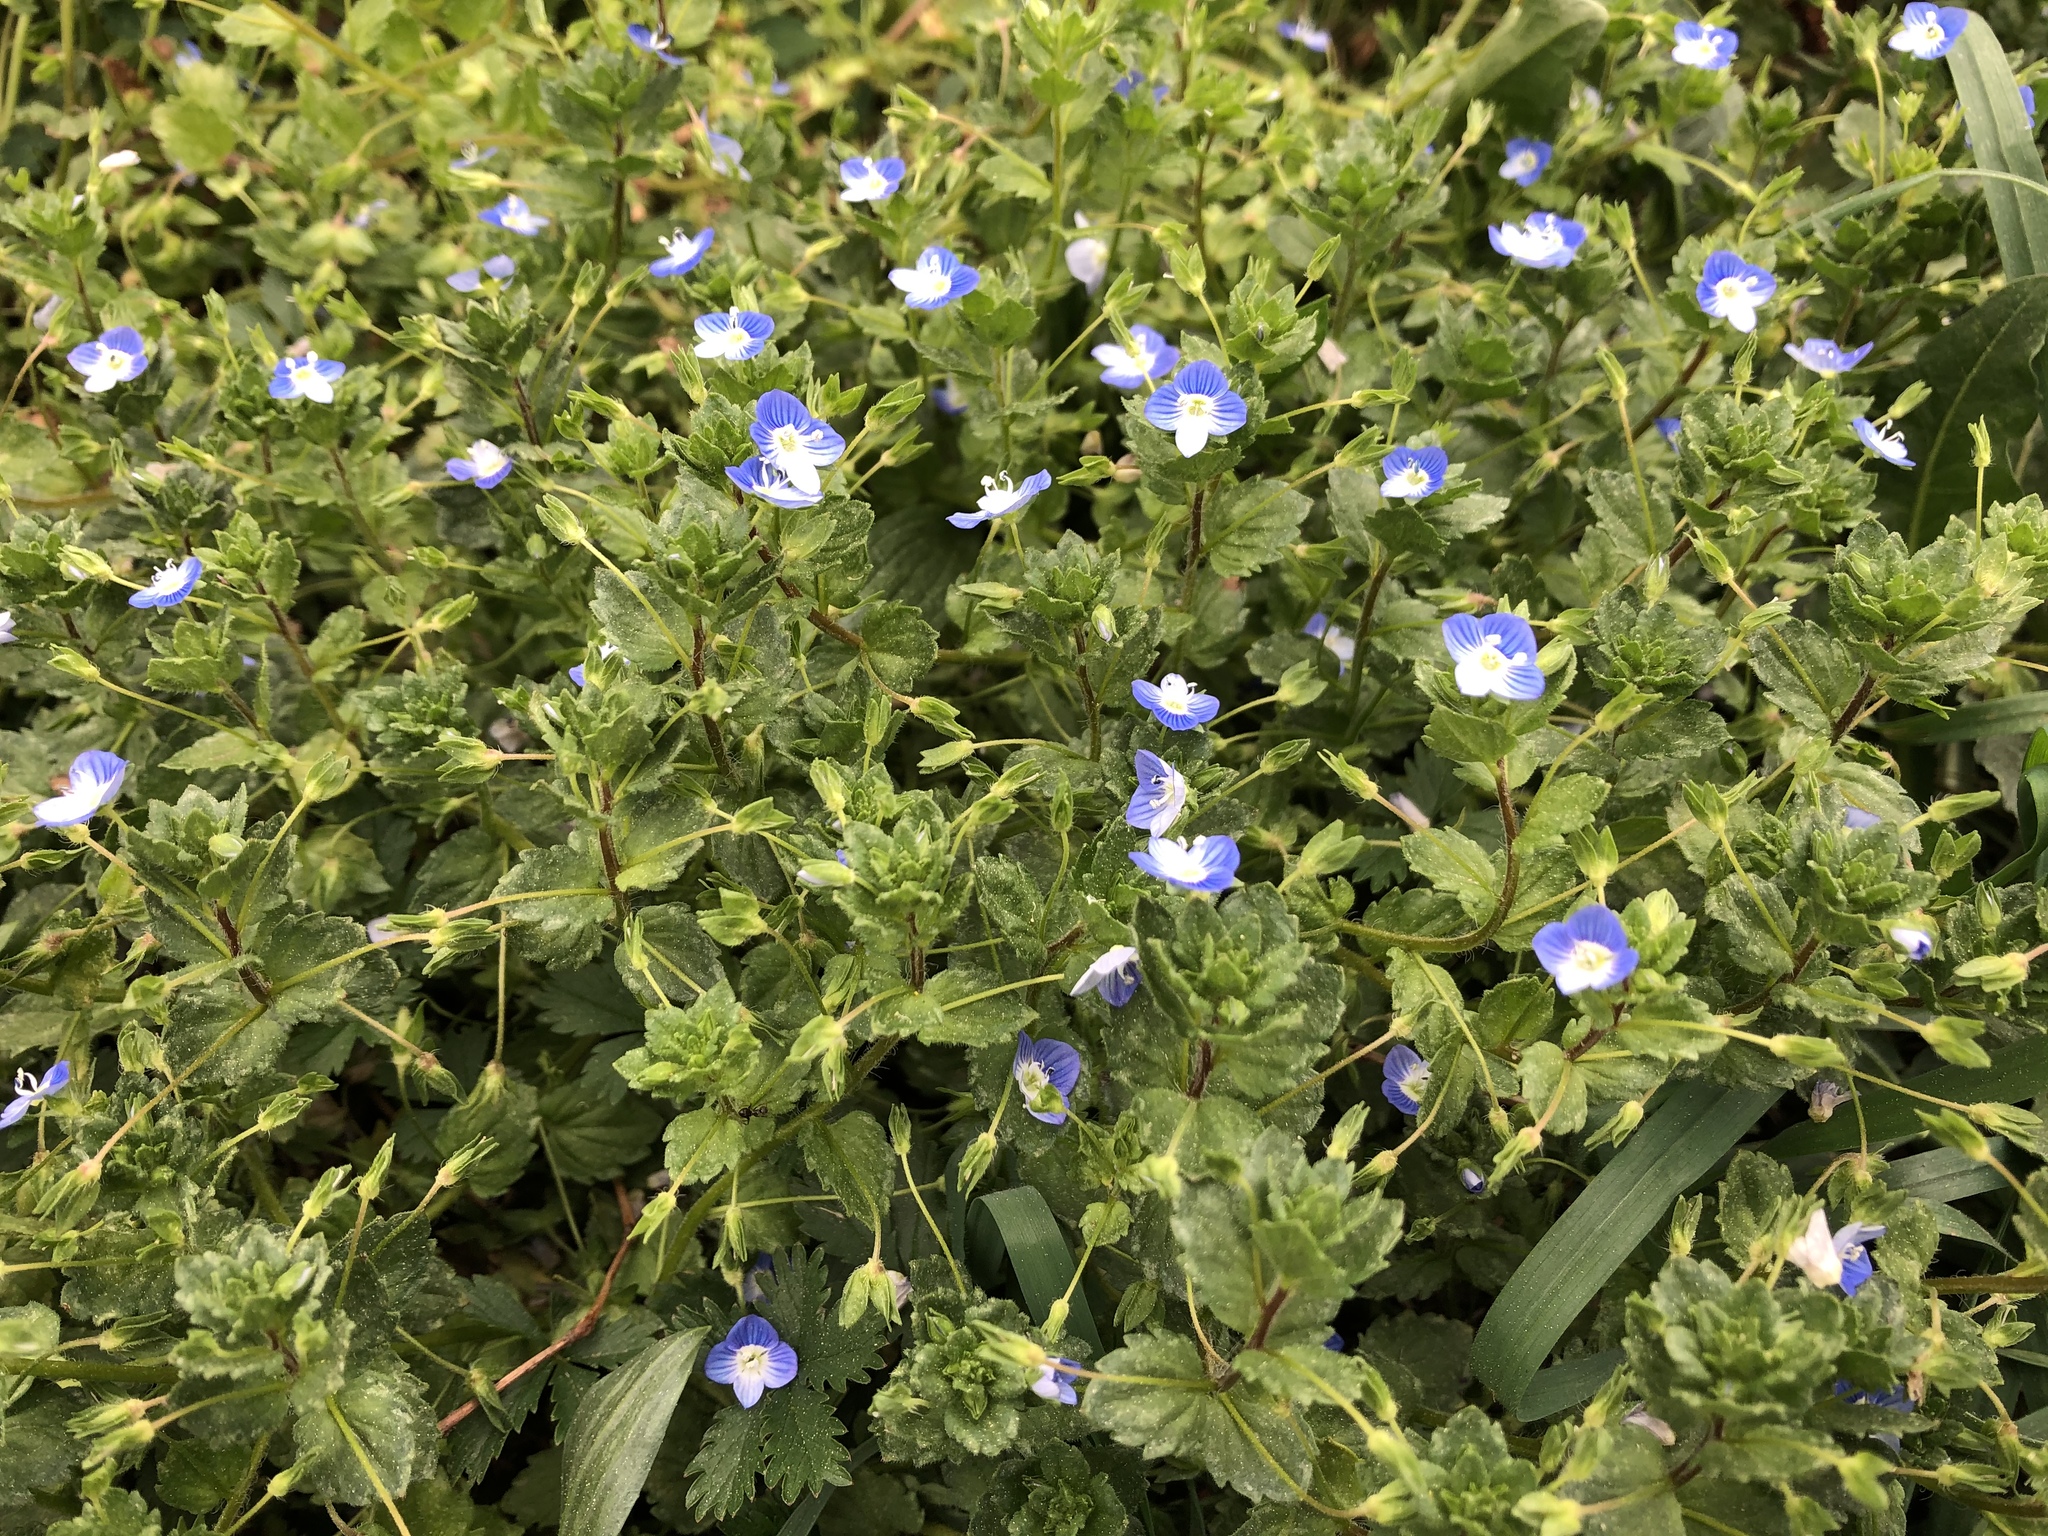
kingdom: Plantae
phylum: Tracheophyta
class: Magnoliopsida
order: Lamiales
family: Plantaginaceae
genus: Veronica
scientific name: Veronica persica
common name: Common field-speedwell
